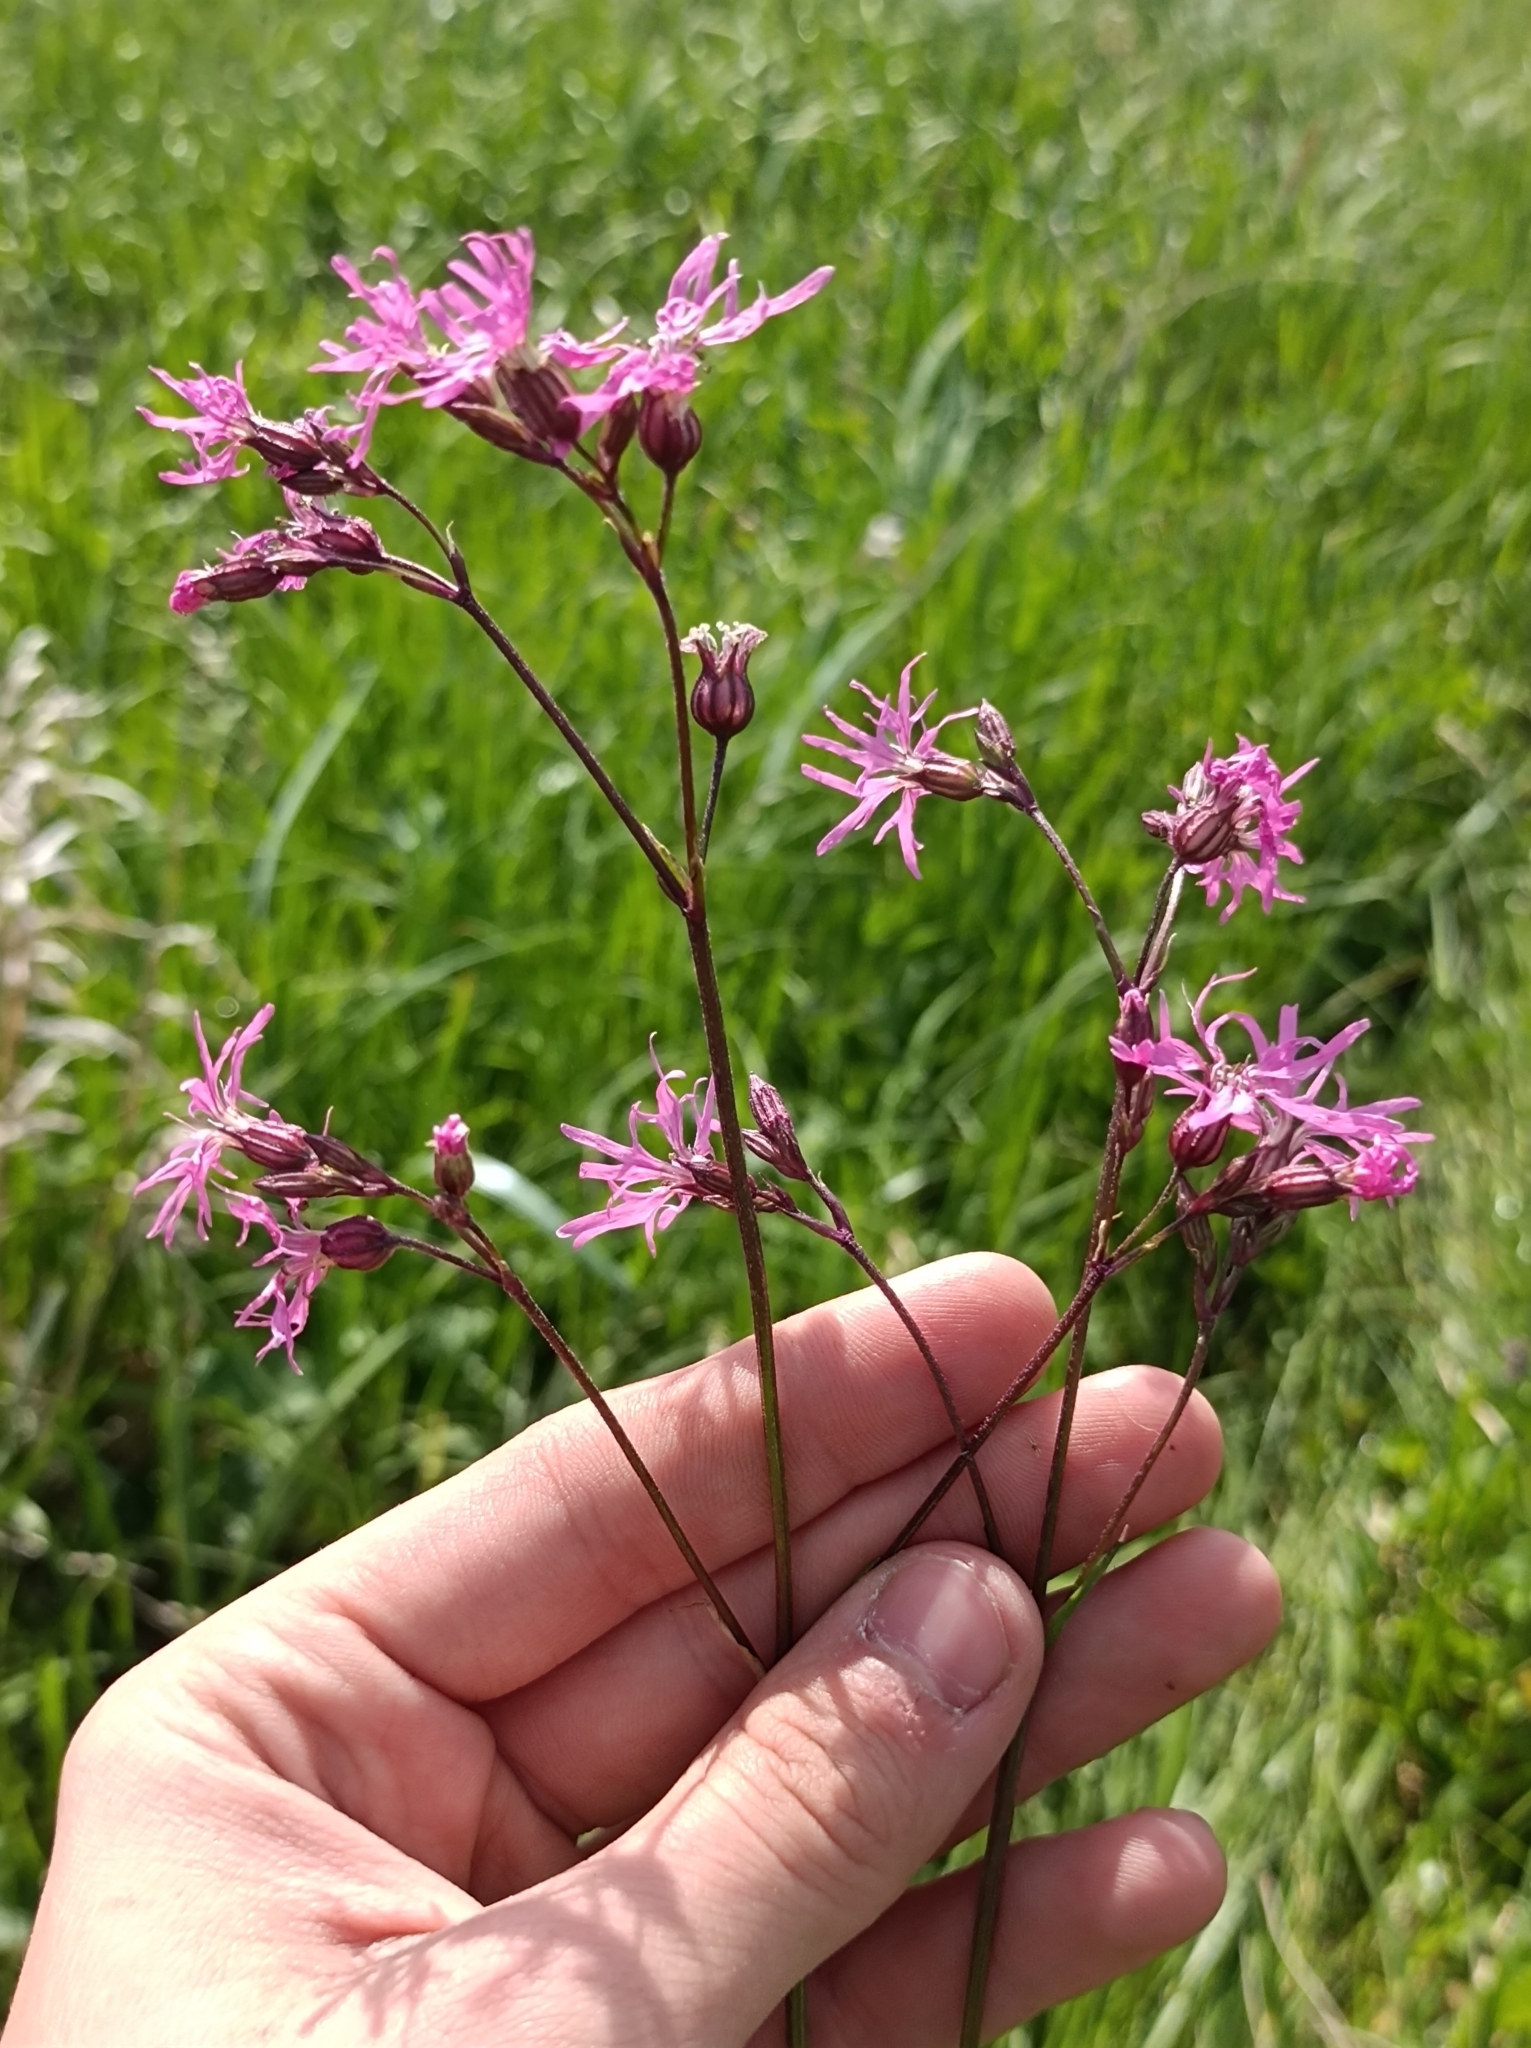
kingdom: Plantae
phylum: Tracheophyta
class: Magnoliopsida
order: Caryophyllales
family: Caryophyllaceae
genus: Silene
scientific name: Silene flos-cuculi
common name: Ragged-robin
